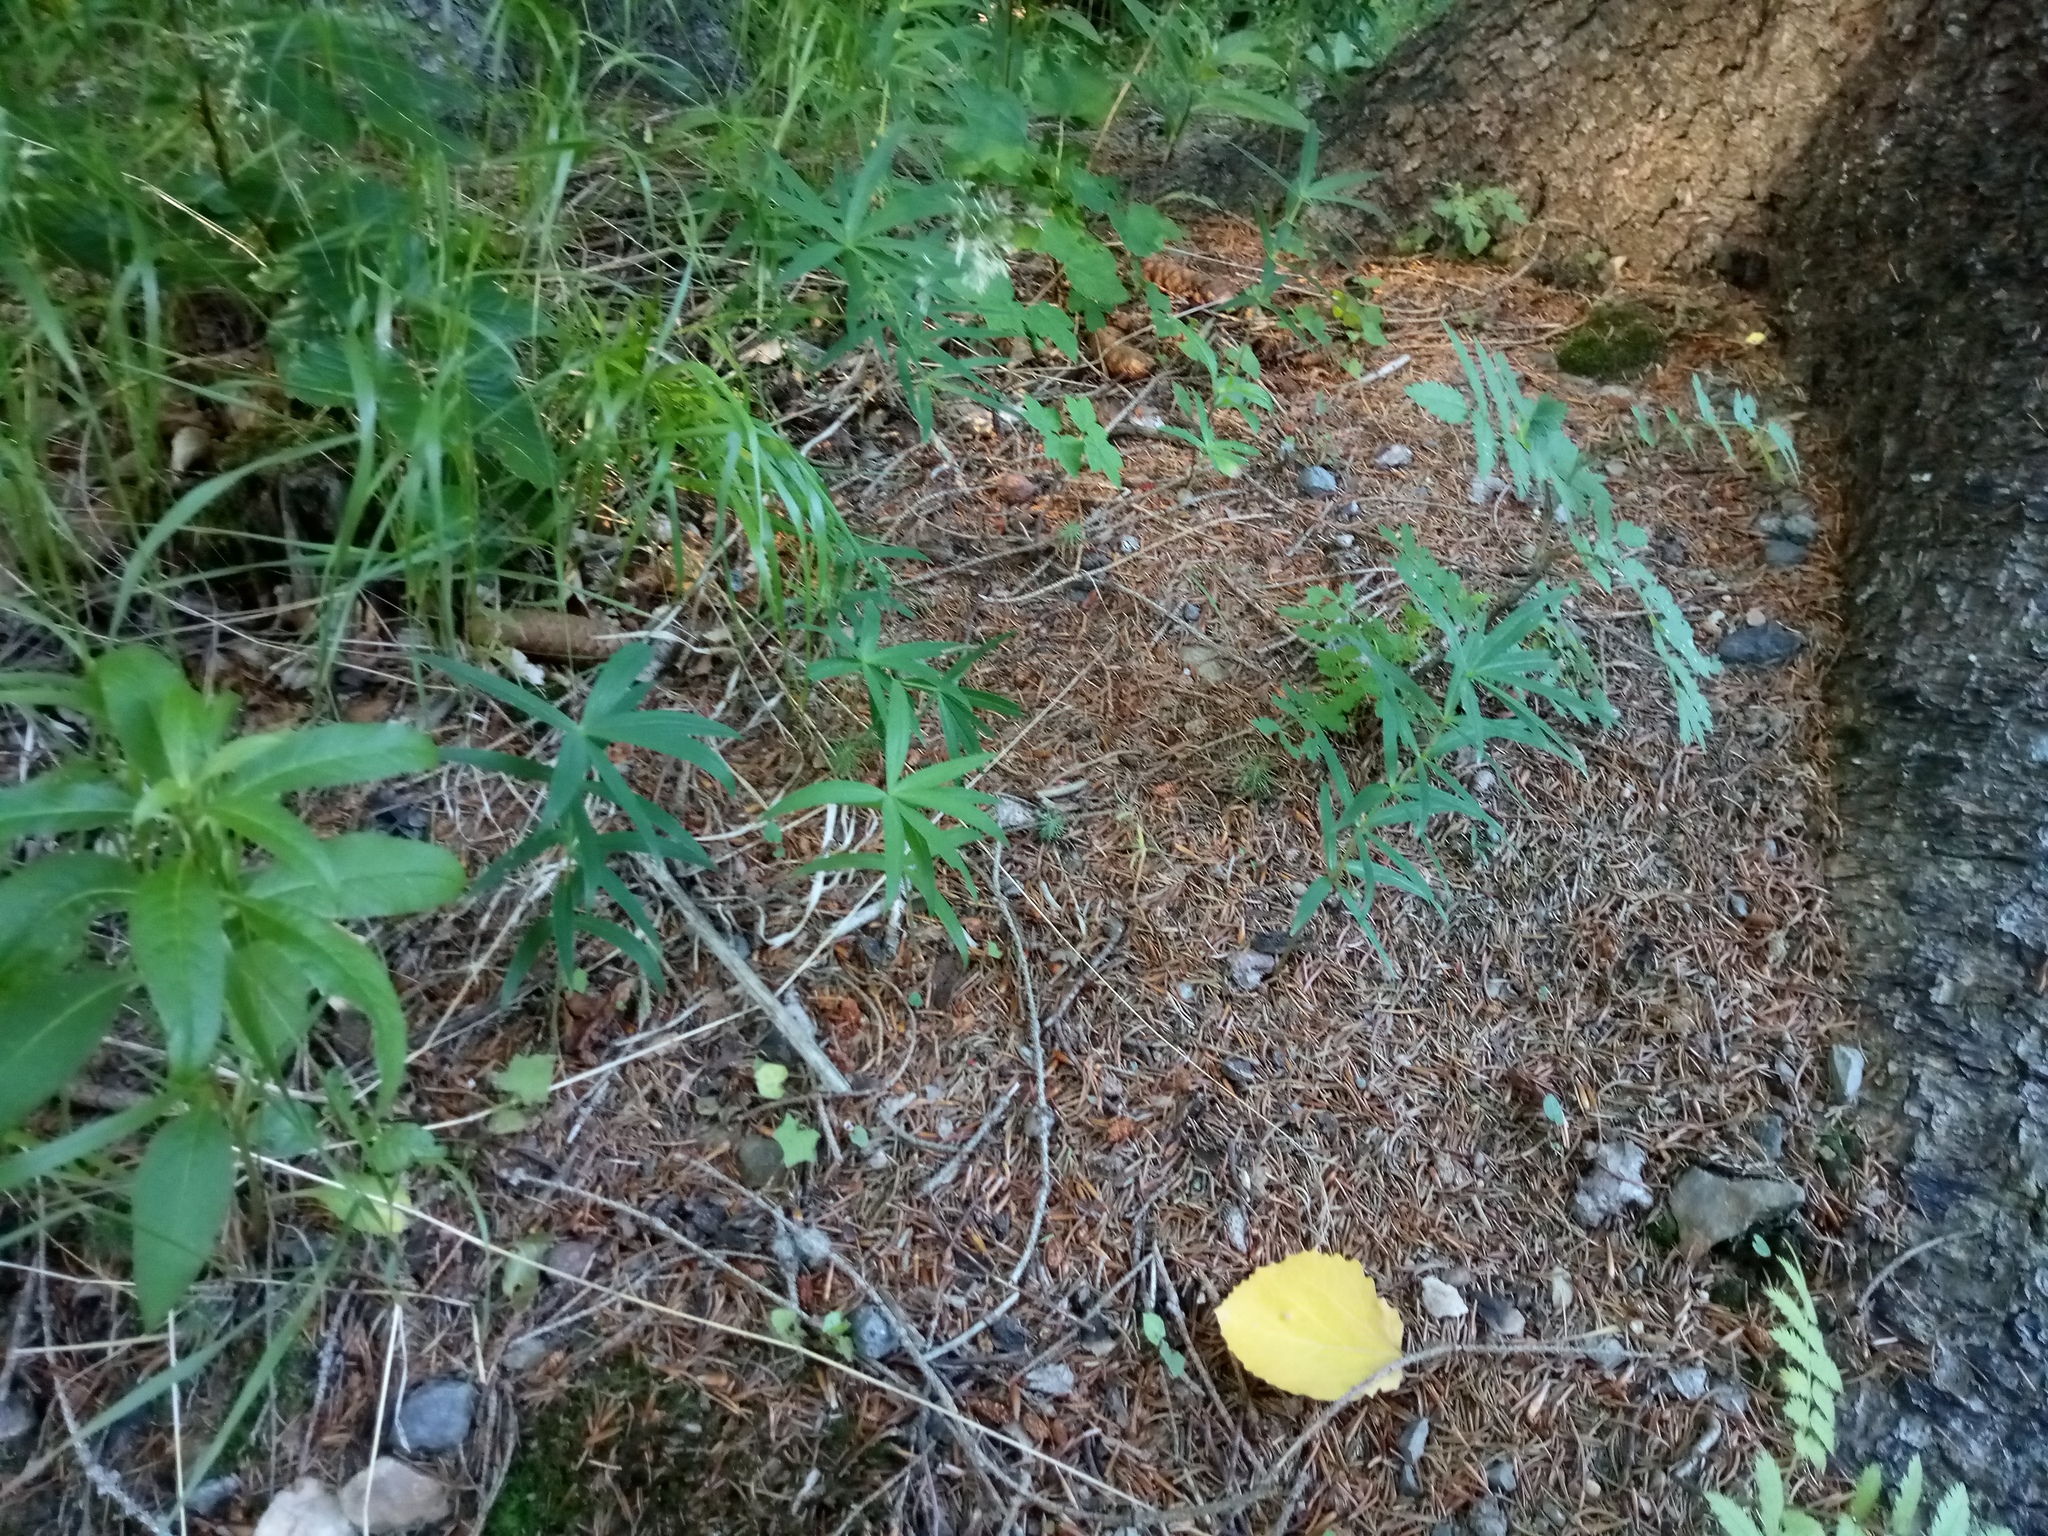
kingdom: Plantae
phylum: Tracheophyta
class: Liliopsida
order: Asparagales
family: Asparagaceae
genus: Polygonatum
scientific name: Polygonatum verticillatum
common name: Whorled solomon's-seal
